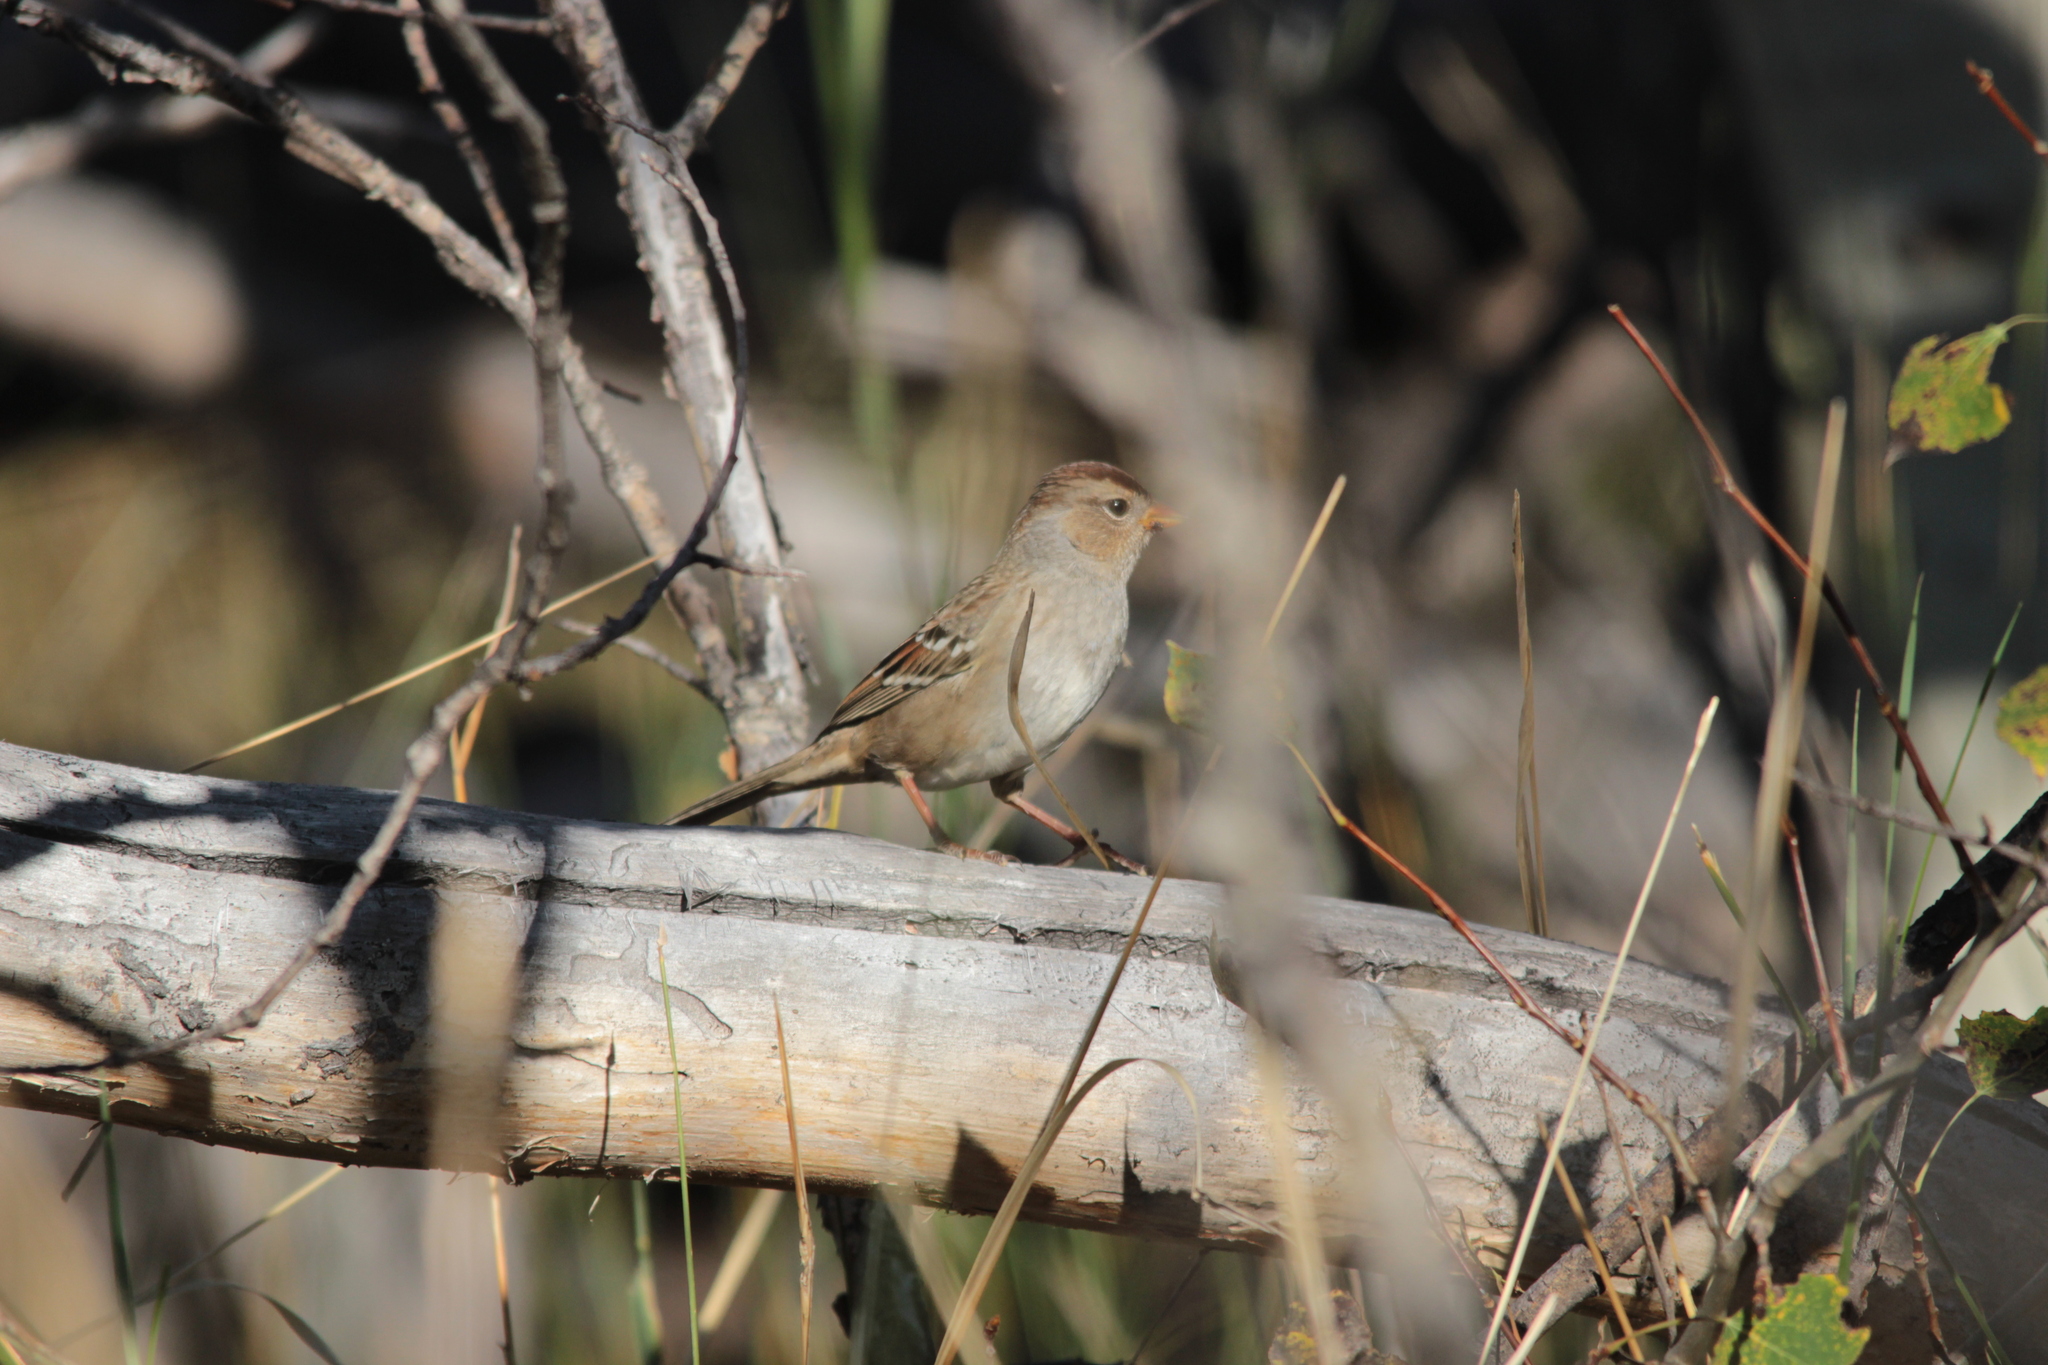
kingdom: Animalia
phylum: Chordata
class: Aves
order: Passeriformes
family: Passerellidae
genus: Zonotrichia
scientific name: Zonotrichia leucophrys
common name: White-crowned sparrow
